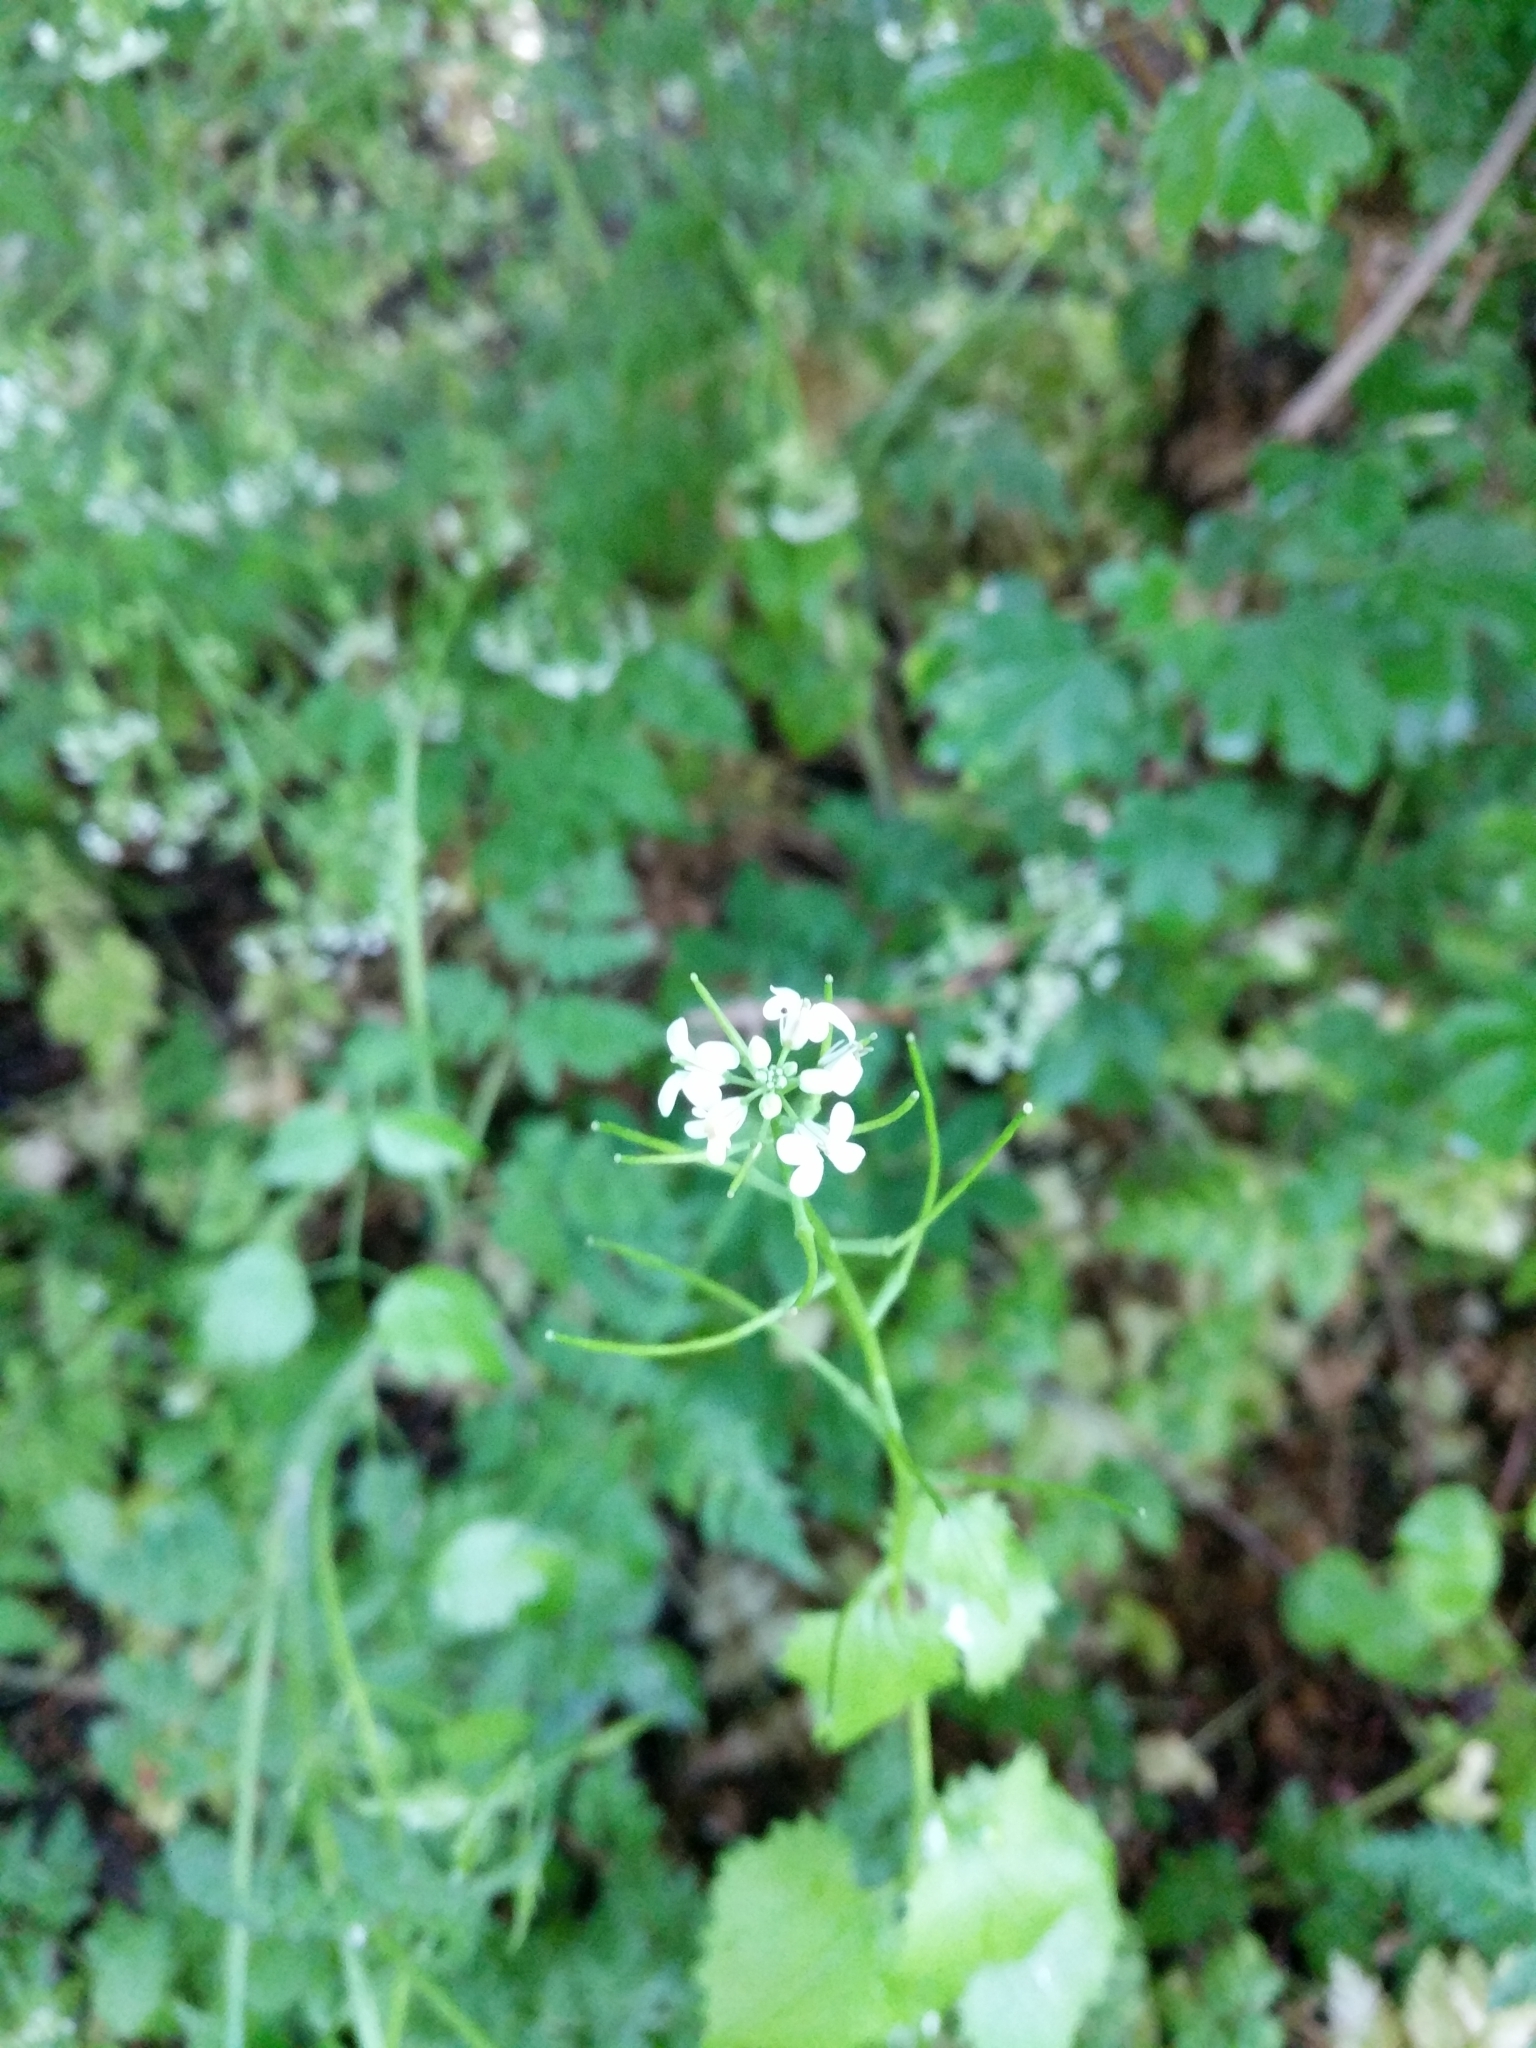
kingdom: Plantae
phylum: Tracheophyta
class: Magnoliopsida
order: Brassicales
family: Brassicaceae
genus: Alliaria
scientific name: Alliaria petiolata
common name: Garlic mustard
